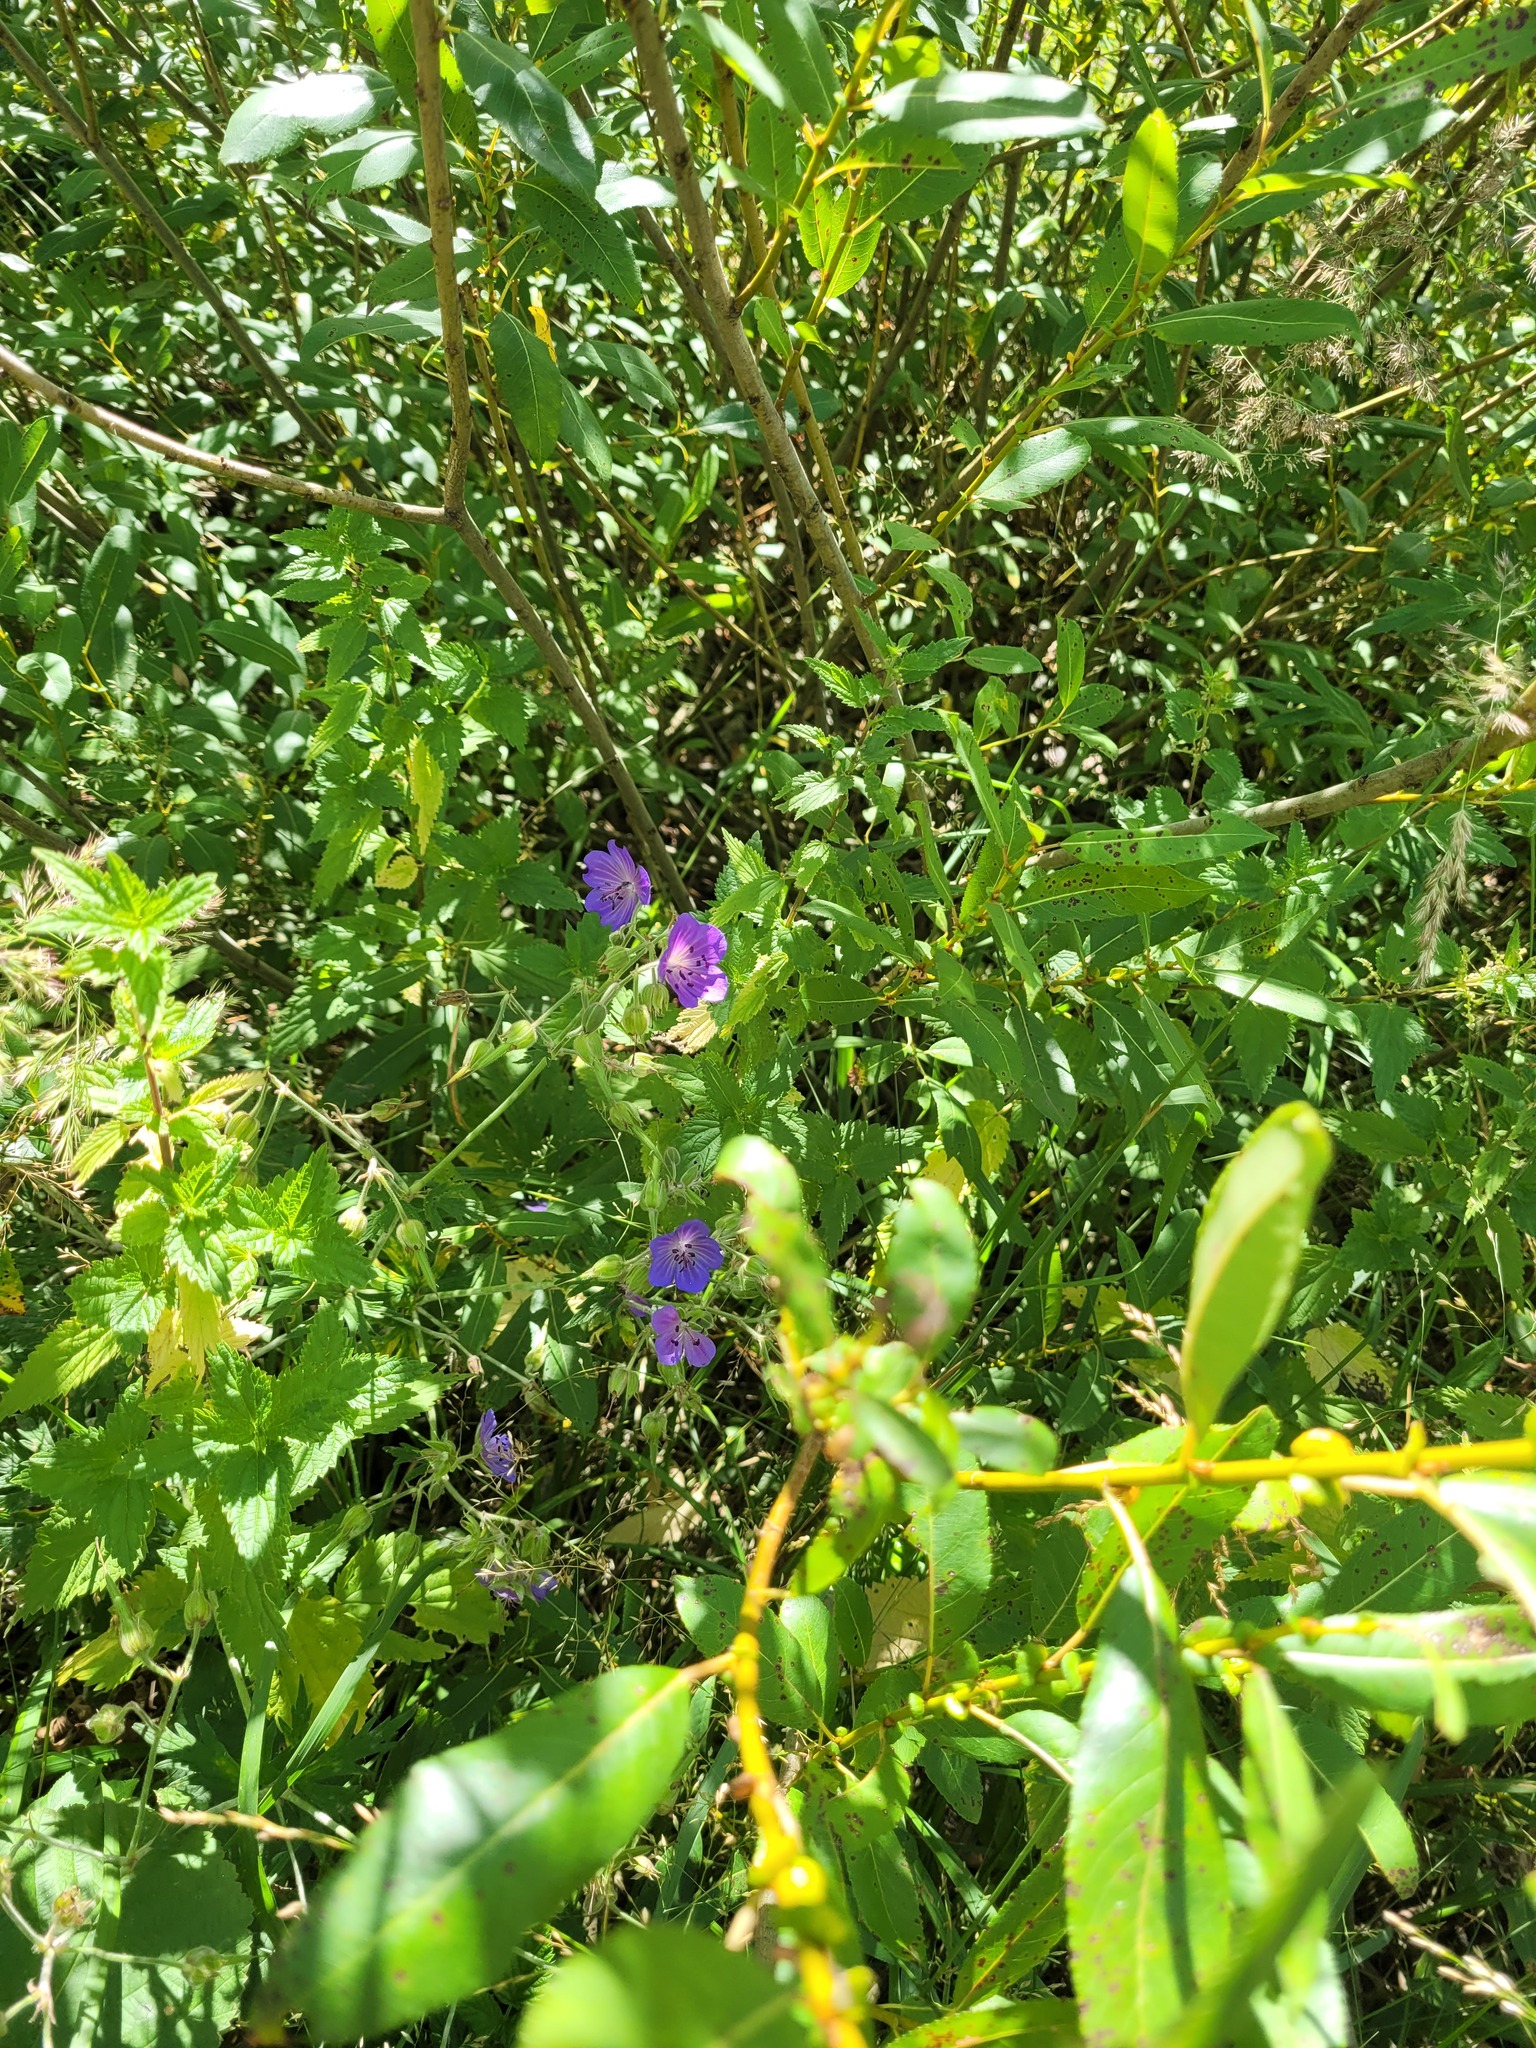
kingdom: Plantae
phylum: Tracheophyta
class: Magnoliopsida
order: Geraniales
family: Geraniaceae
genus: Geranium
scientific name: Geranium pratense
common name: Meadow crane's-bill
